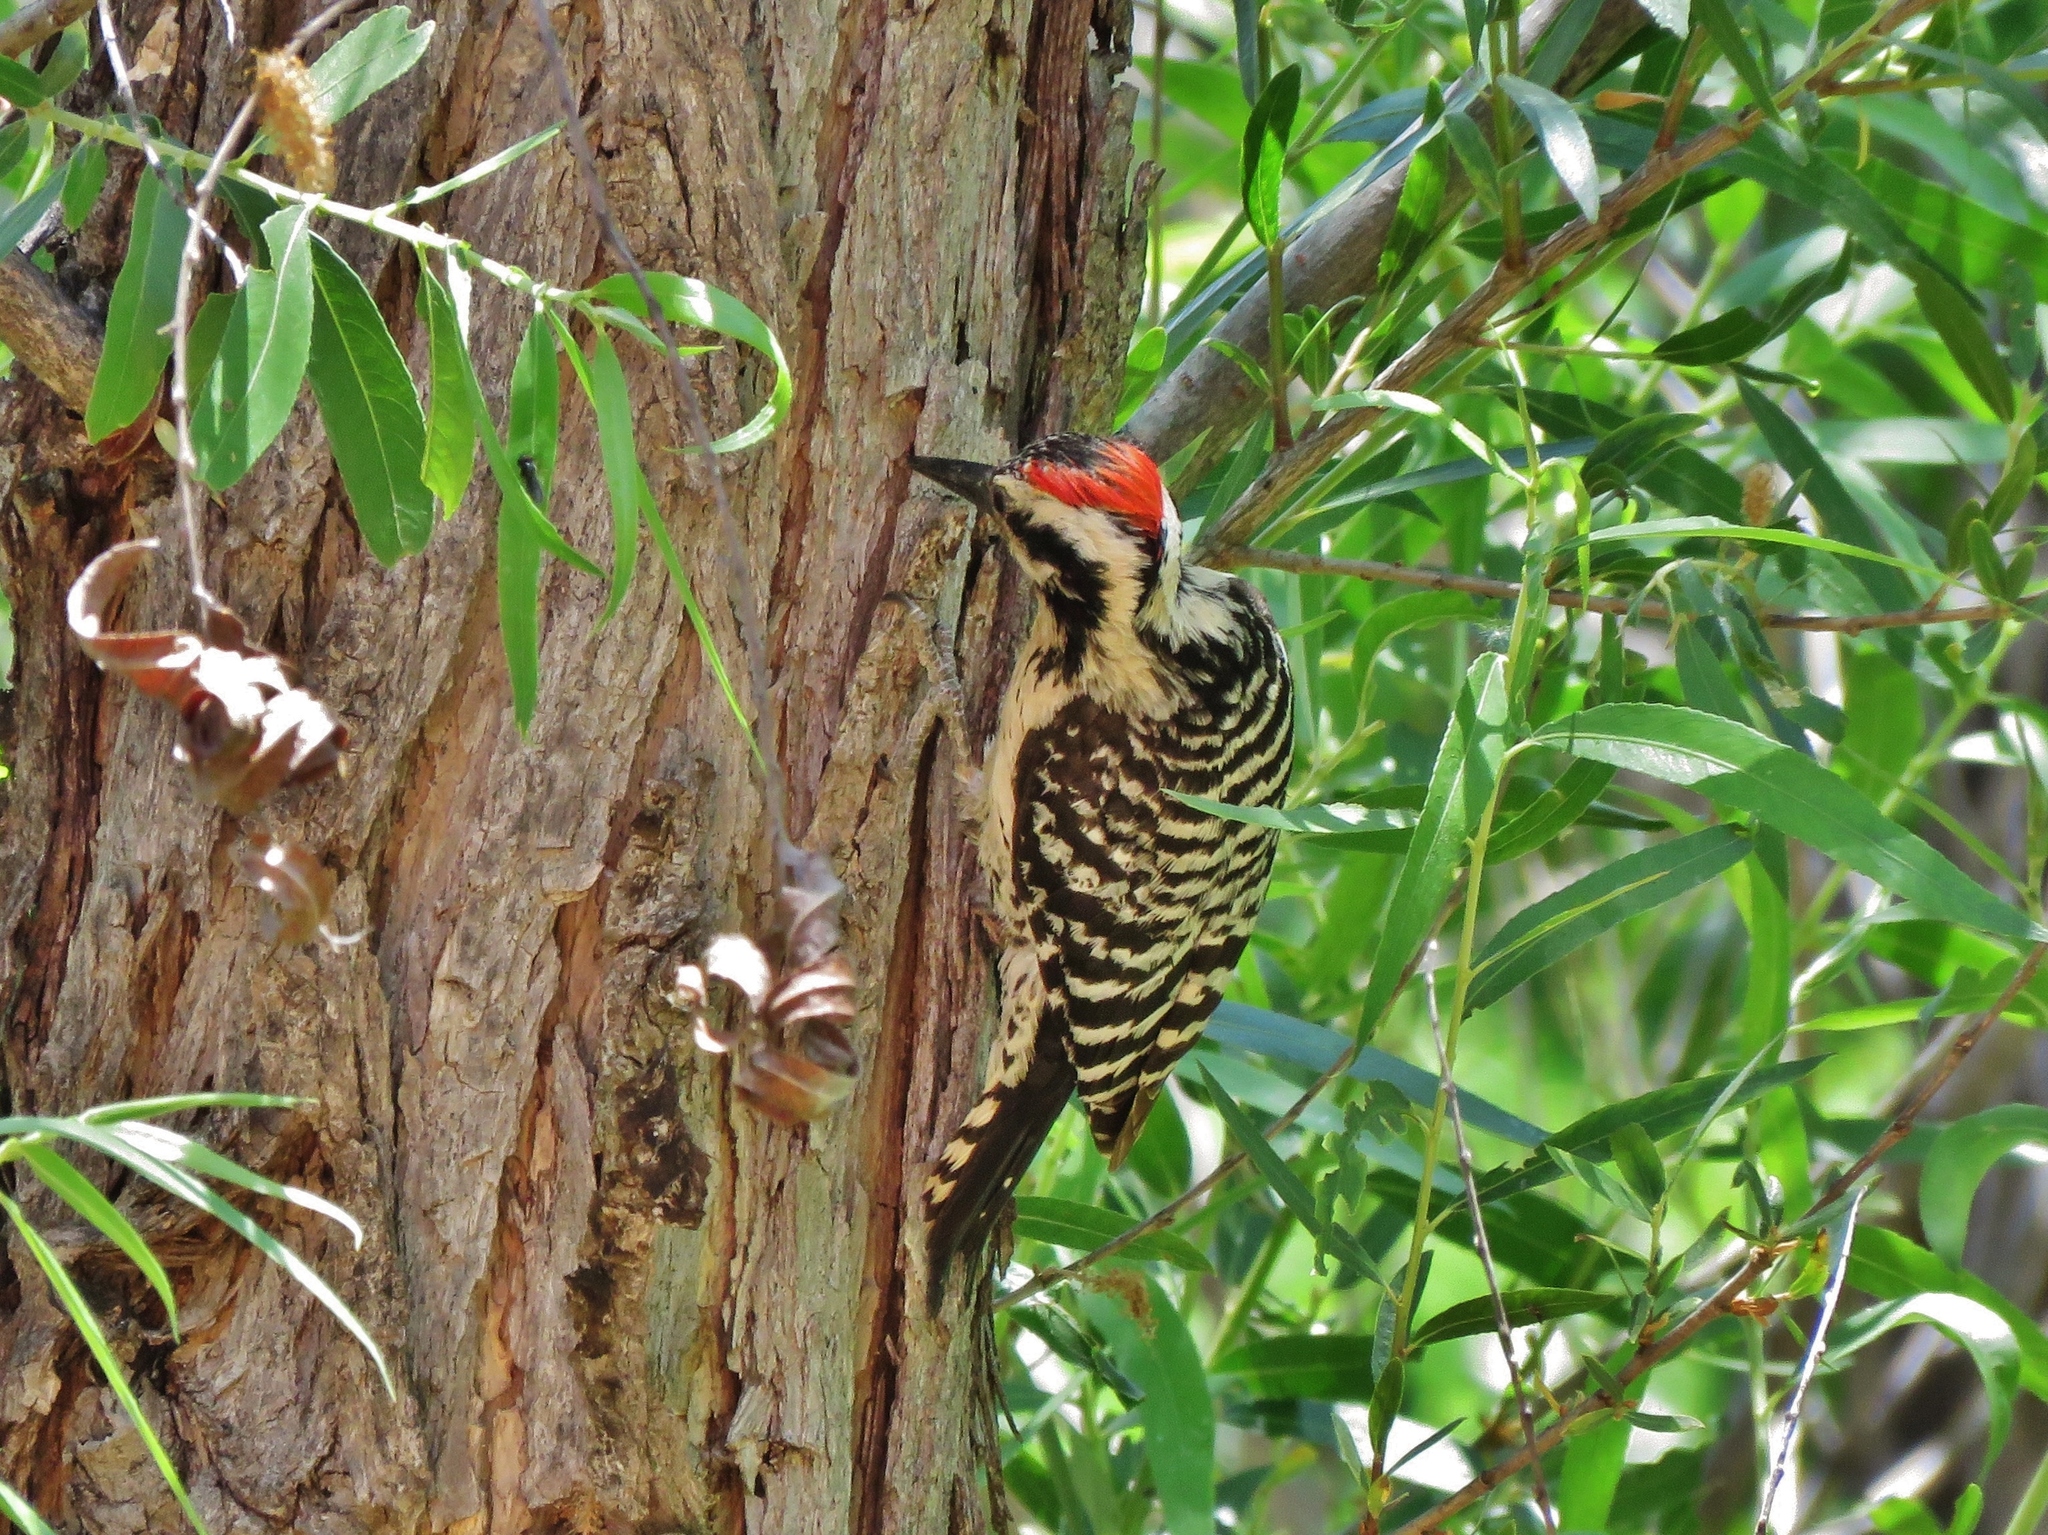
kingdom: Animalia
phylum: Chordata
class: Aves
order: Piciformes
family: Picidae
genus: Dryobates
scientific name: Dryobates scalaris
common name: Ladder-backed woodpecker
